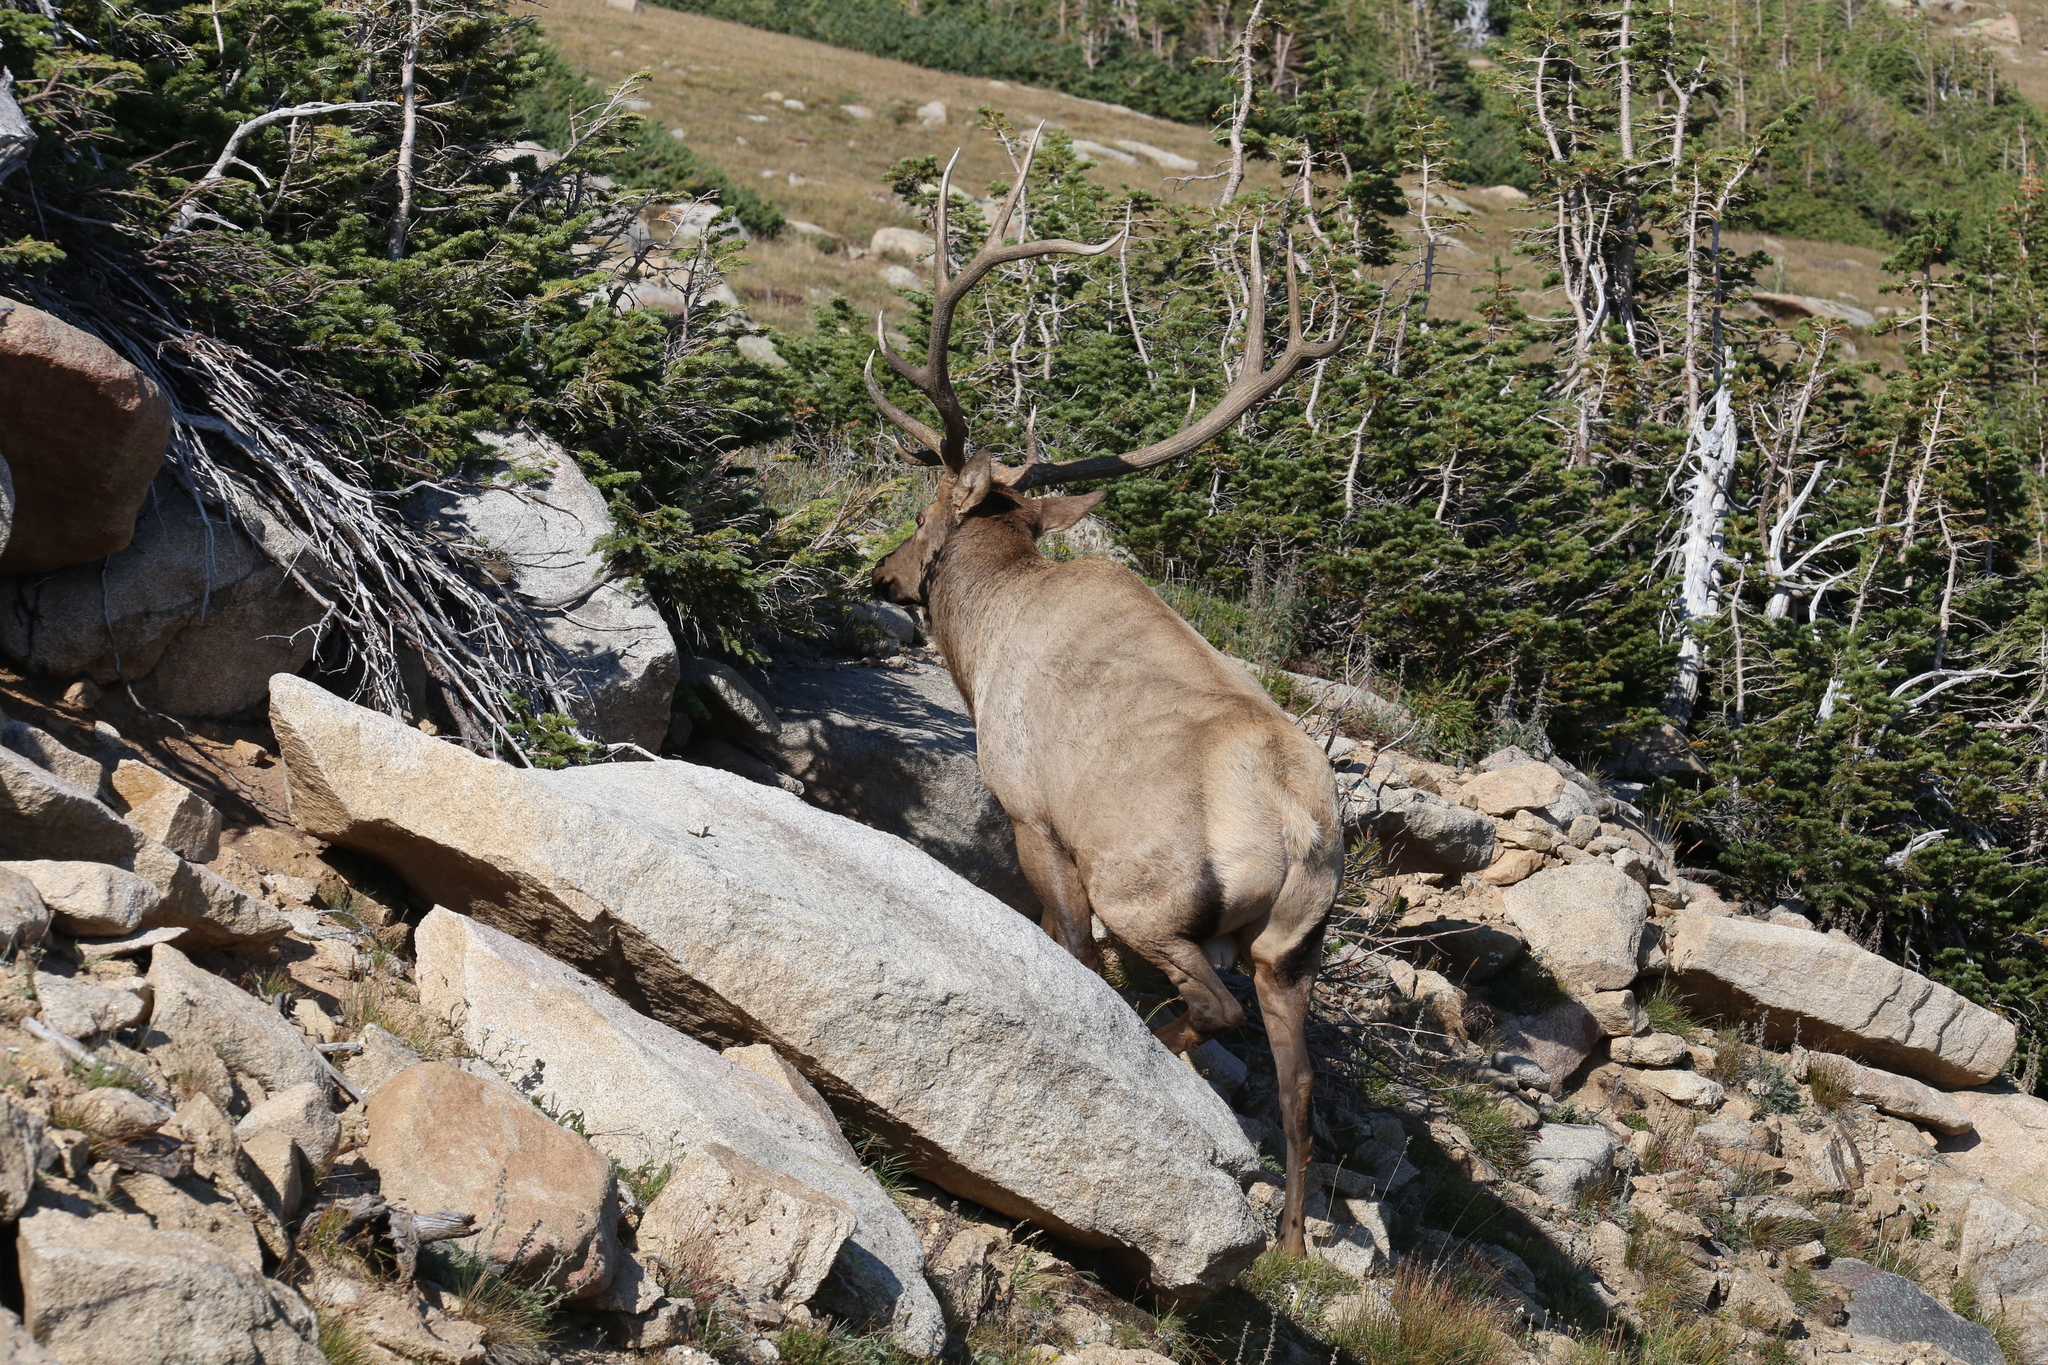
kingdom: Animalia
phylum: Chordata
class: Mammalia
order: Artiodactyla
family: Cervidae
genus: Cervus
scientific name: Cervus elaphus
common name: Red deer
